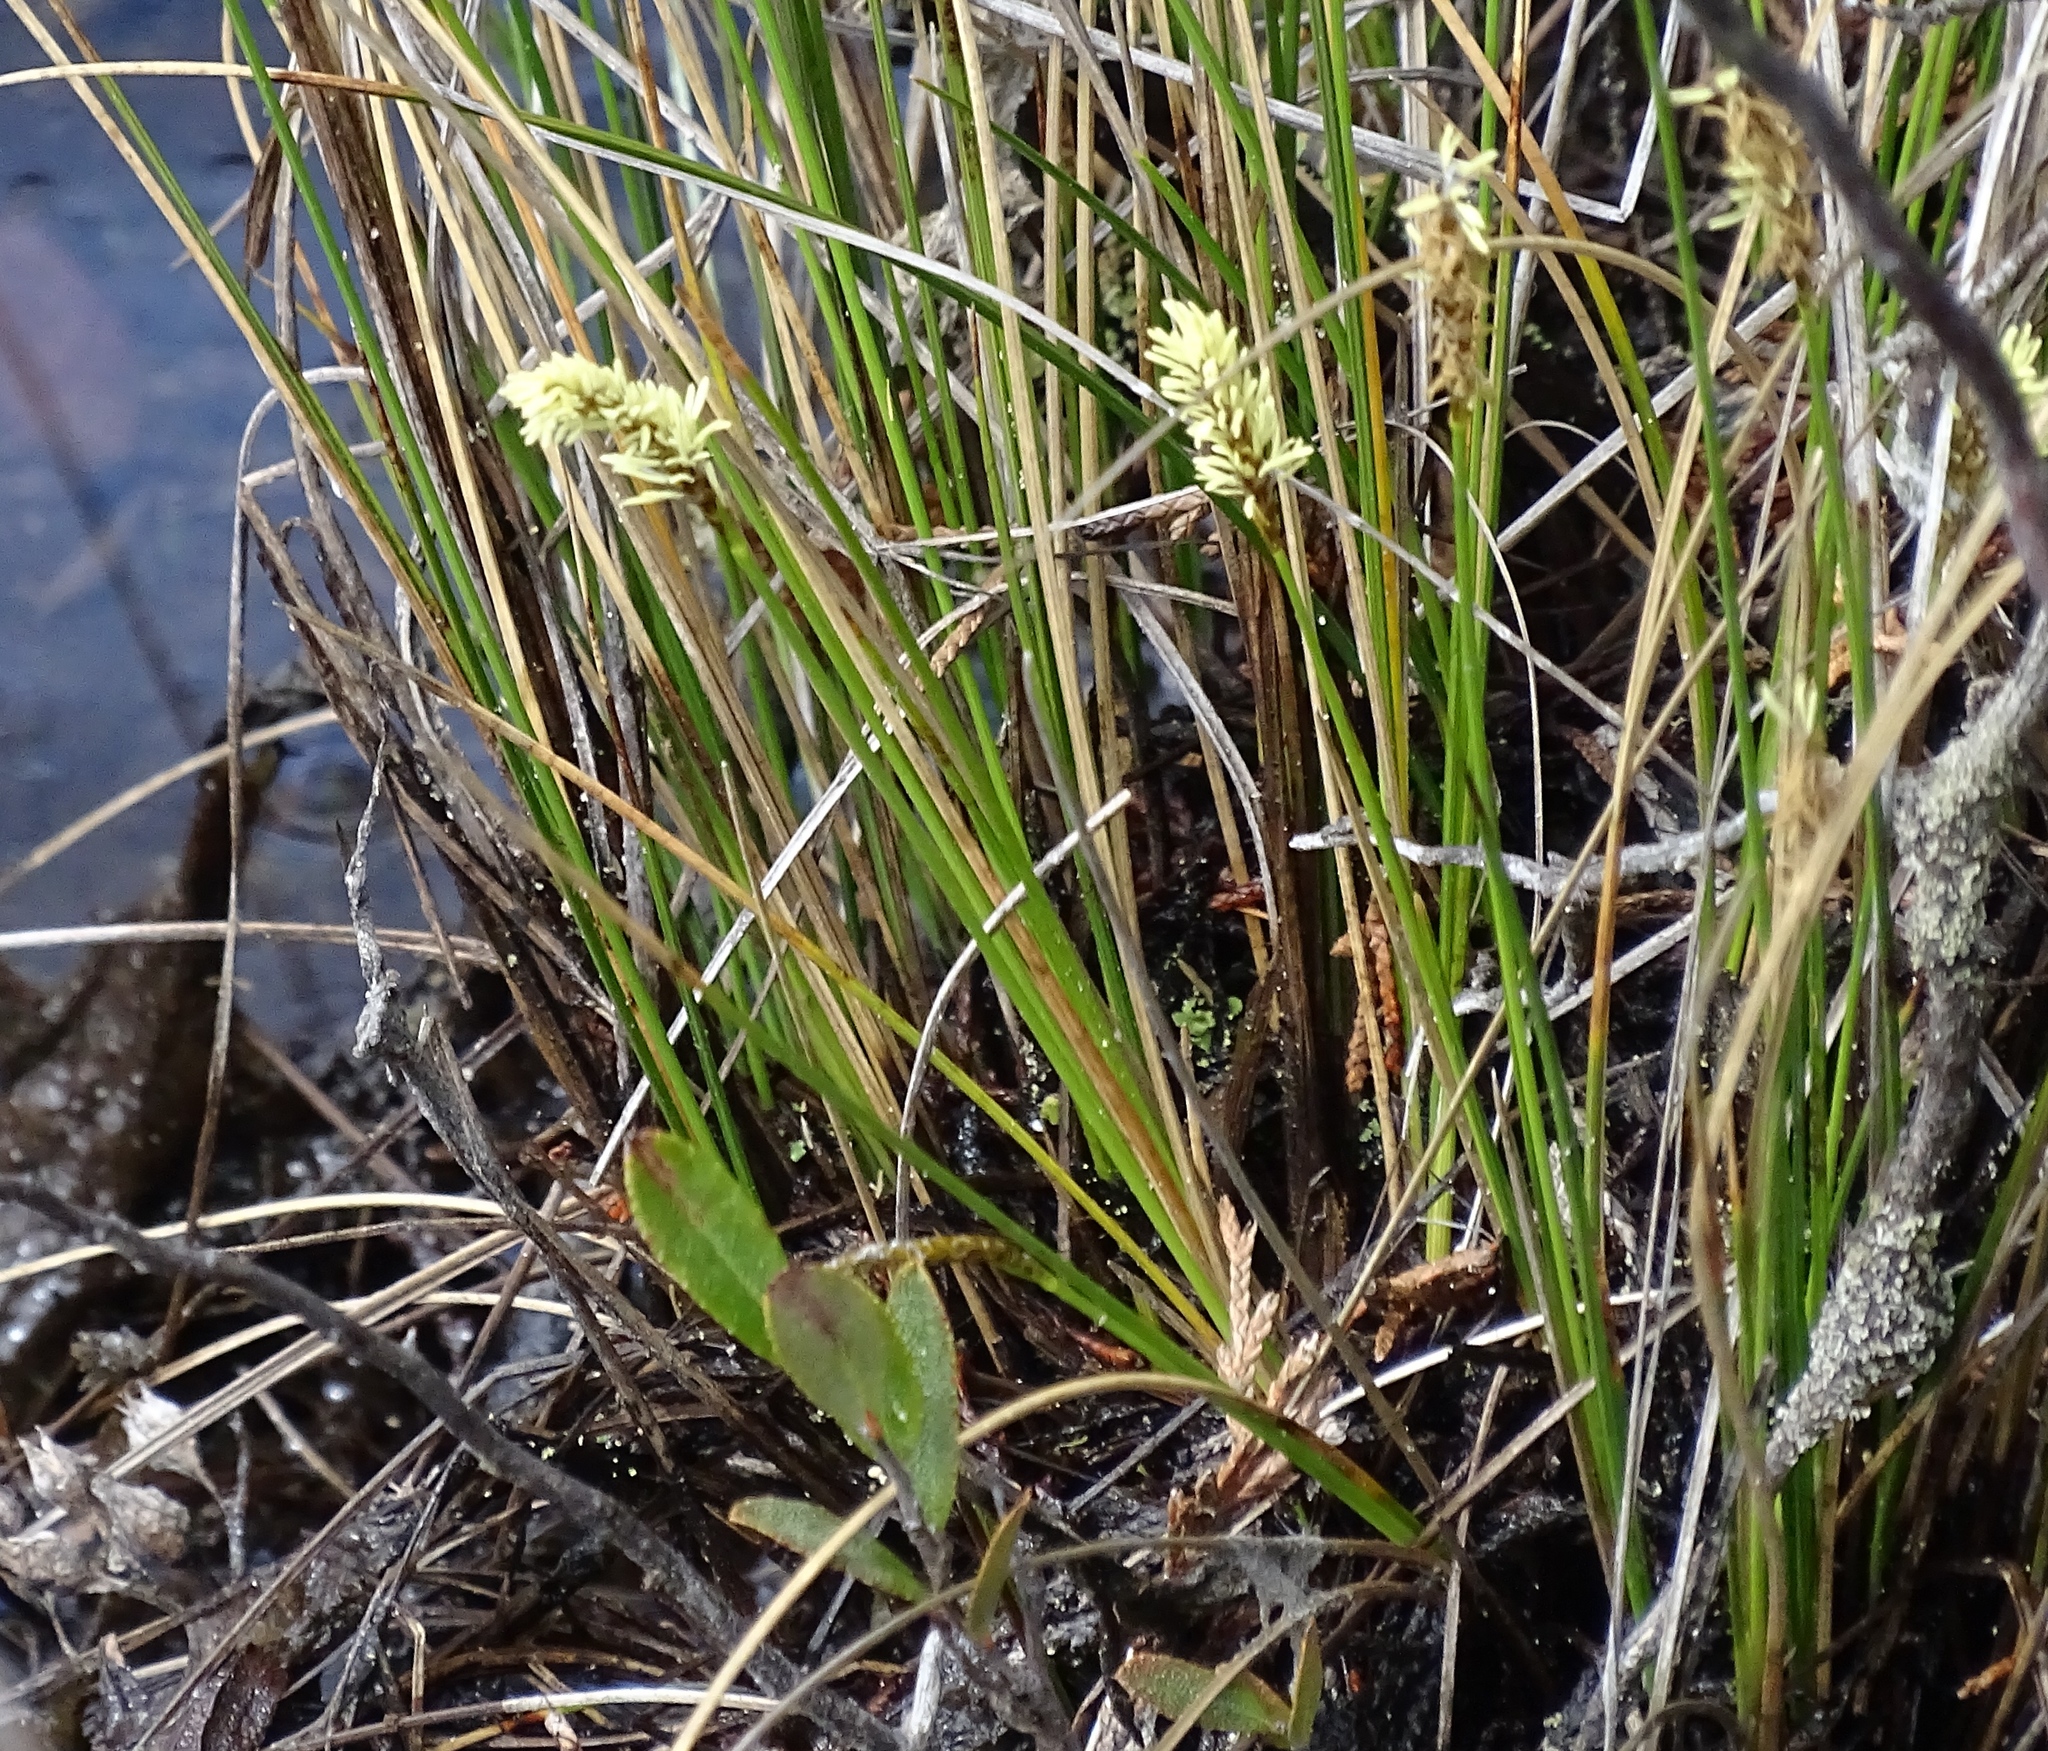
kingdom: Plantae
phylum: Tracheophyta
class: Liliopsida
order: Poales
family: Cyperaceae
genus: Carex
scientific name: Carex exilis
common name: Coastal sedge
